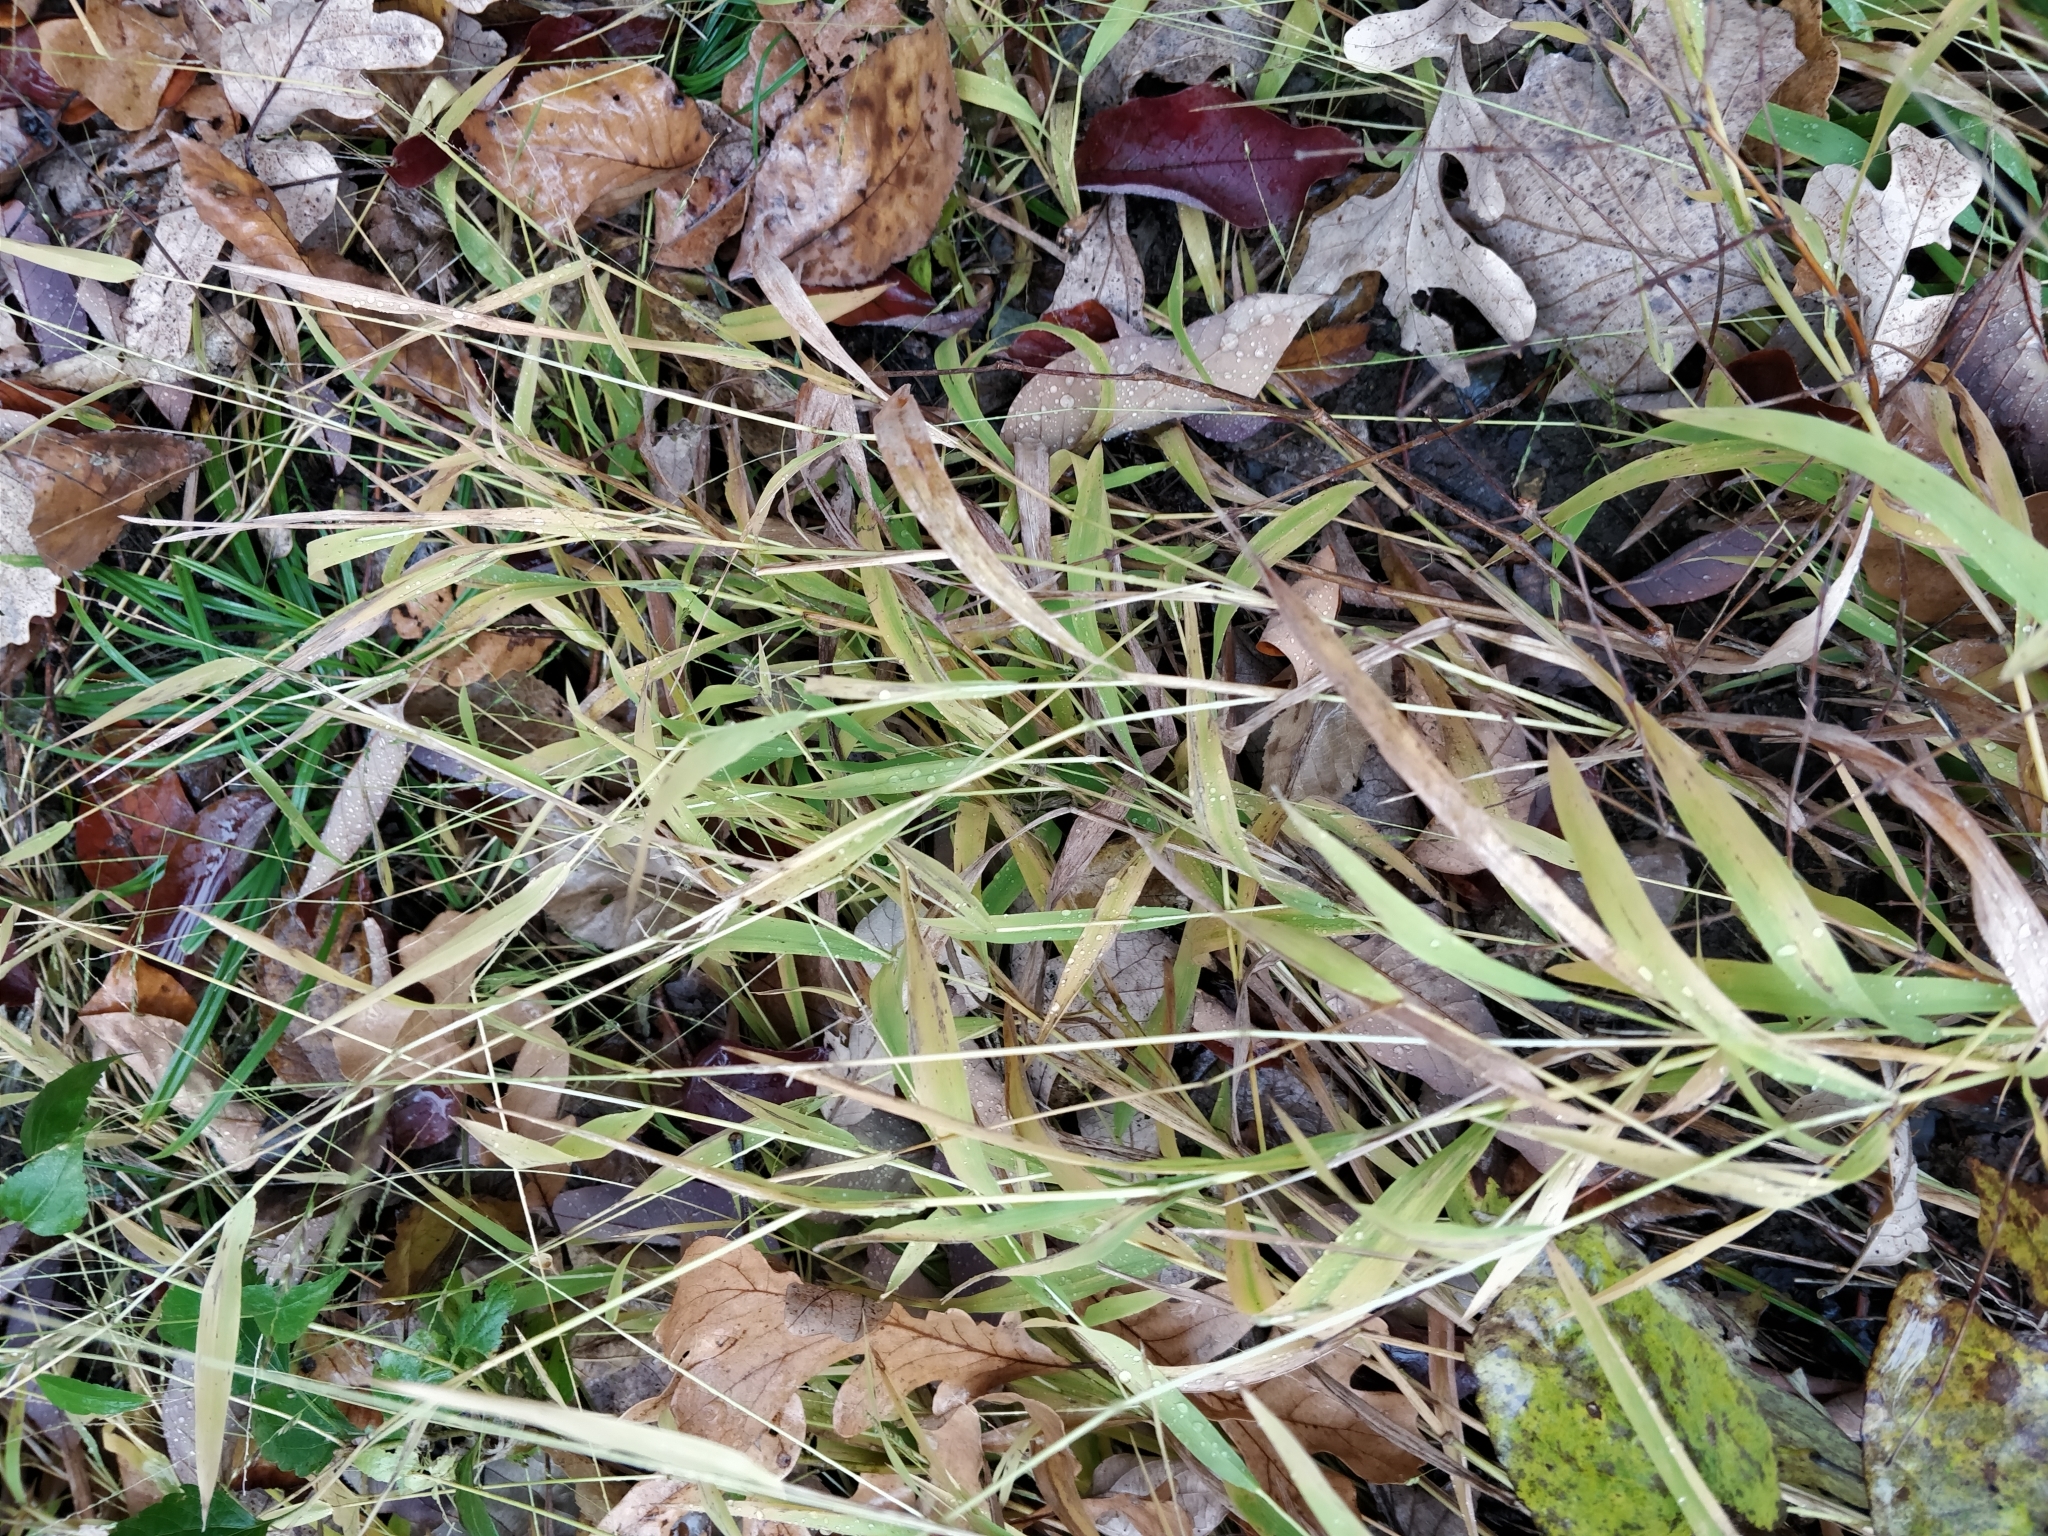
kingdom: Plantae
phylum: Tracheophyta
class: Liliopsida
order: Poales
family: Poaceae
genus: Leersia
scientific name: Leersia virginica
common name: White cutgrass
